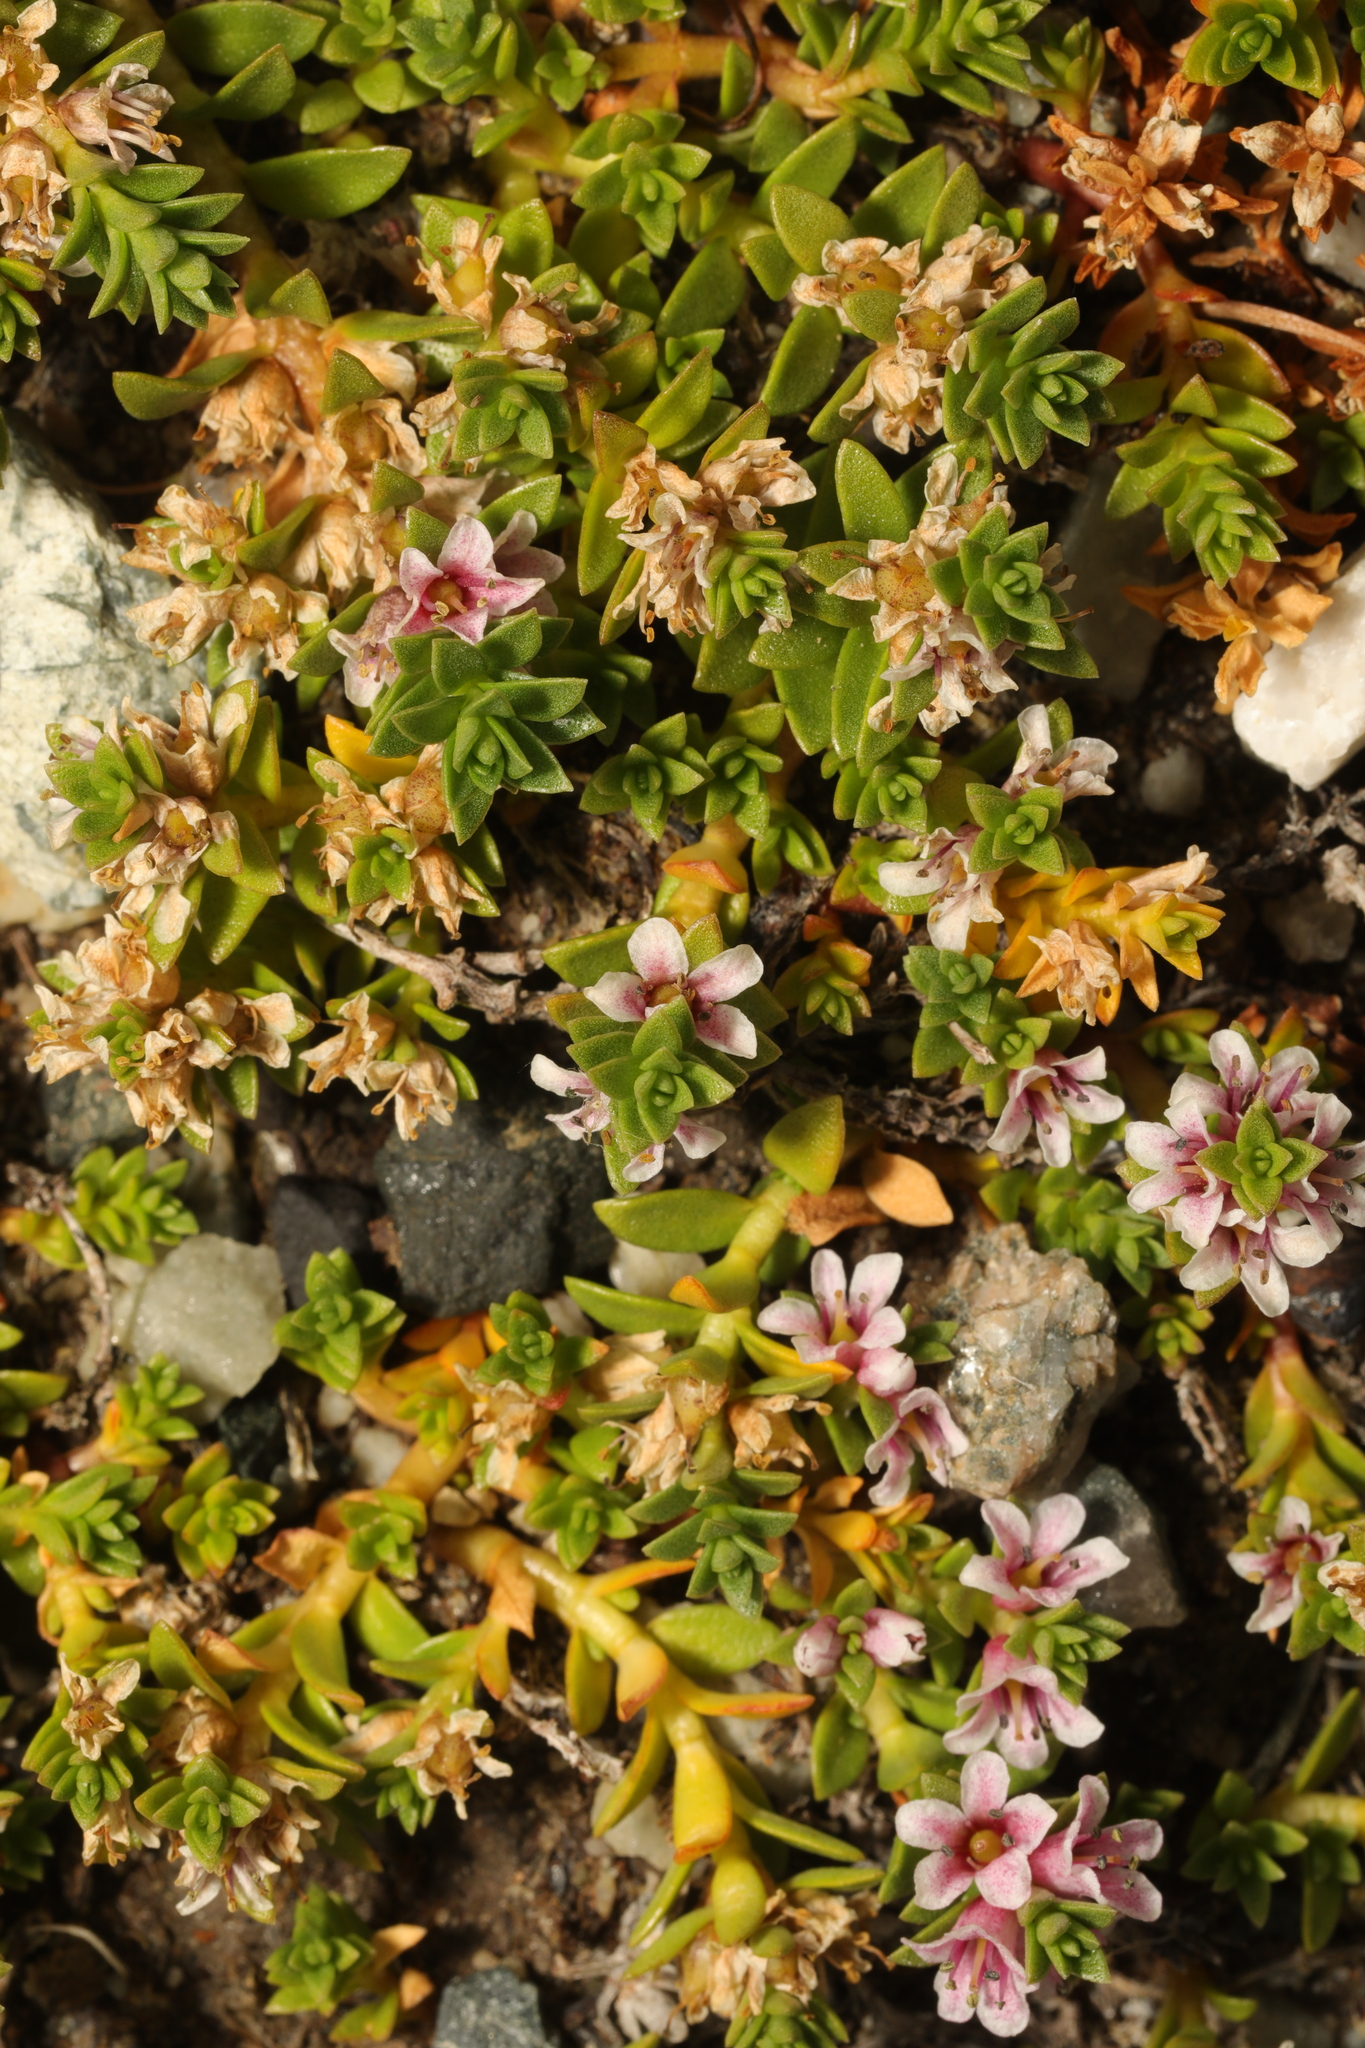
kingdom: Plantae
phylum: Tracheophyta
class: Magnoliopsida
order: Ericales
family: Primulaceae
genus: Lysimachia
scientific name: Lysimachia maritima
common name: Sea milkwort
